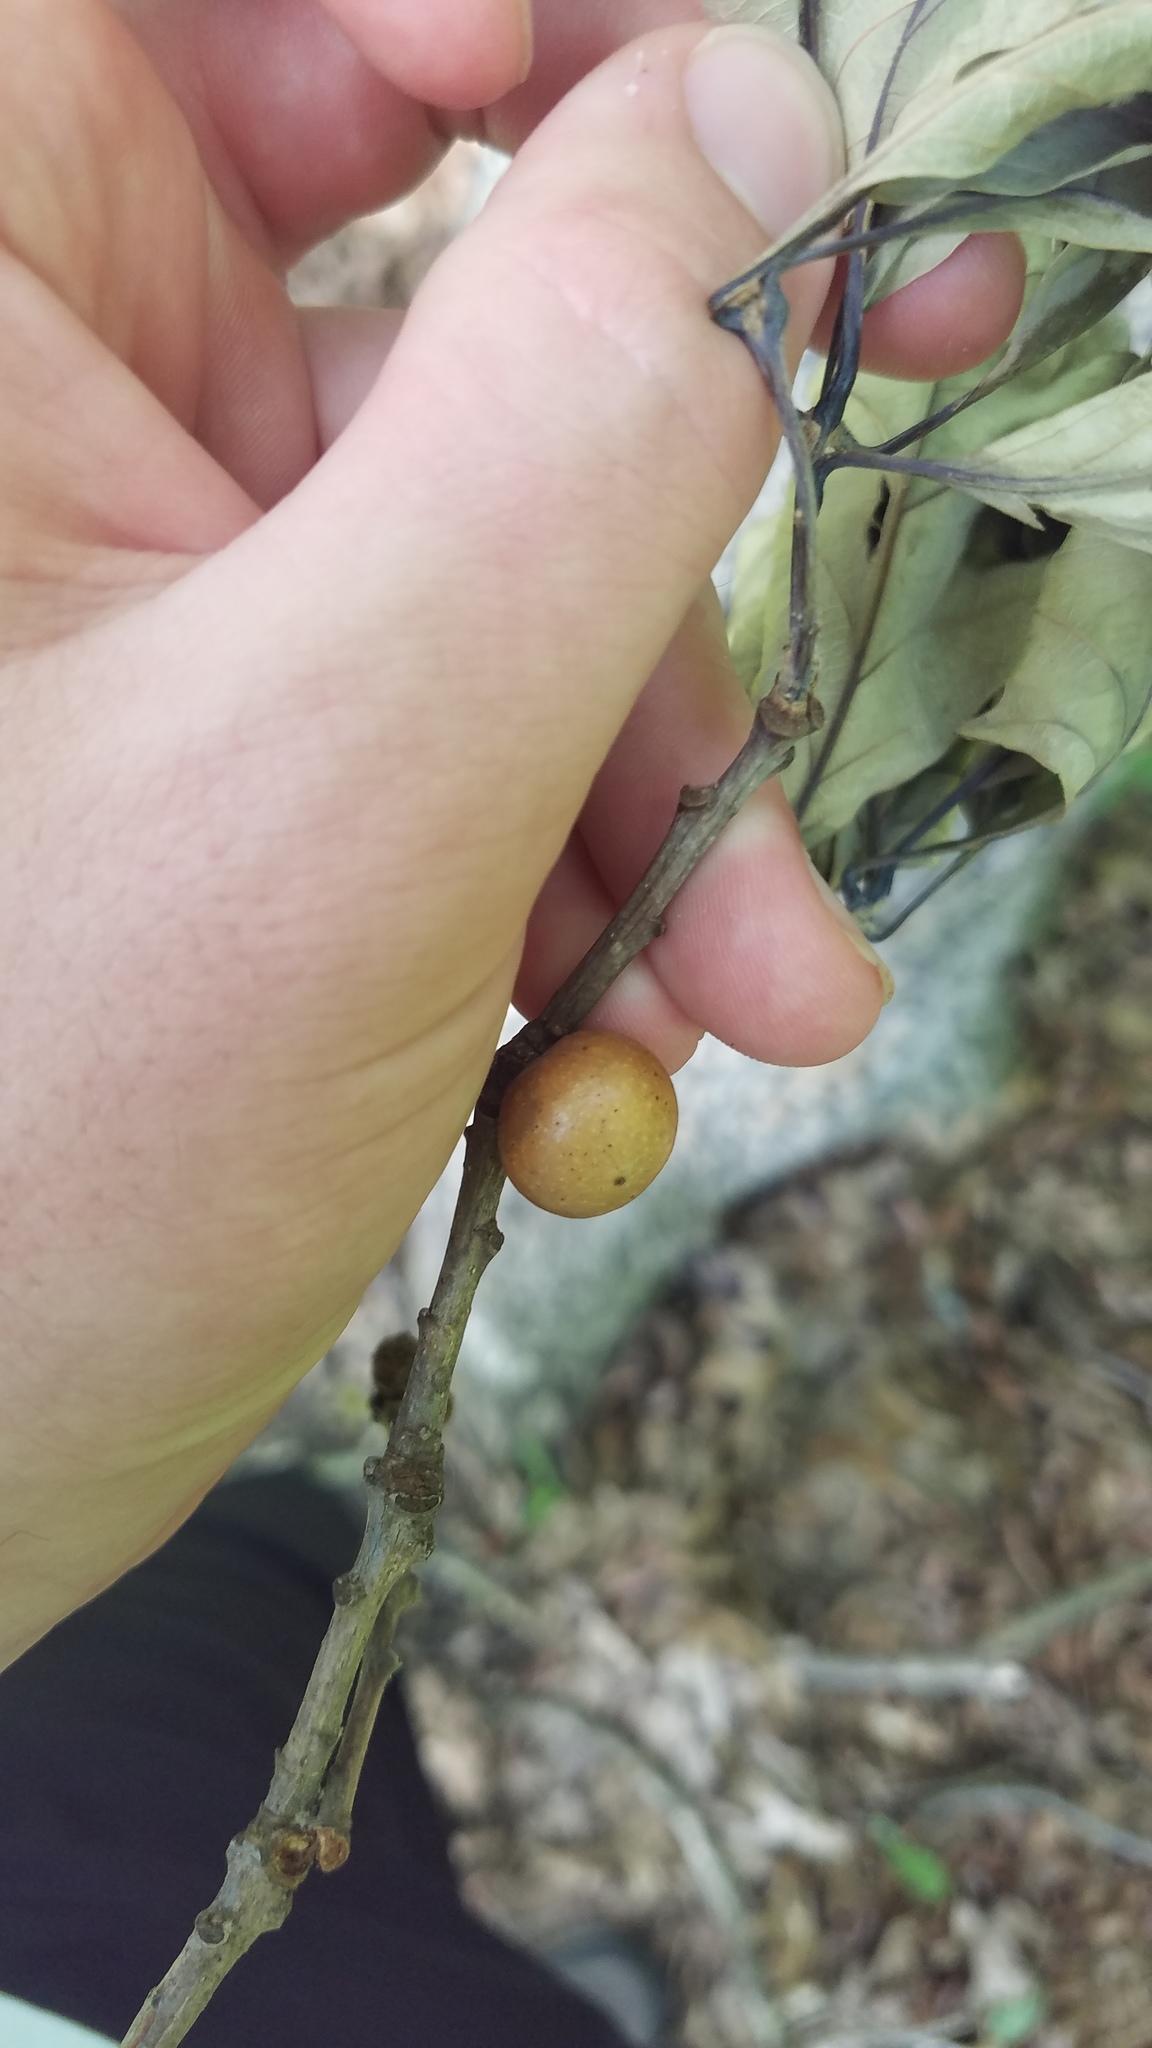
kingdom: Animalia
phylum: Arthropoda
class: Insecta
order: Hymenoptera
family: Cynipidae
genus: Disholcaspis
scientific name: Disholcaspis quercusglobulus
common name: Round bullet gall wasp
